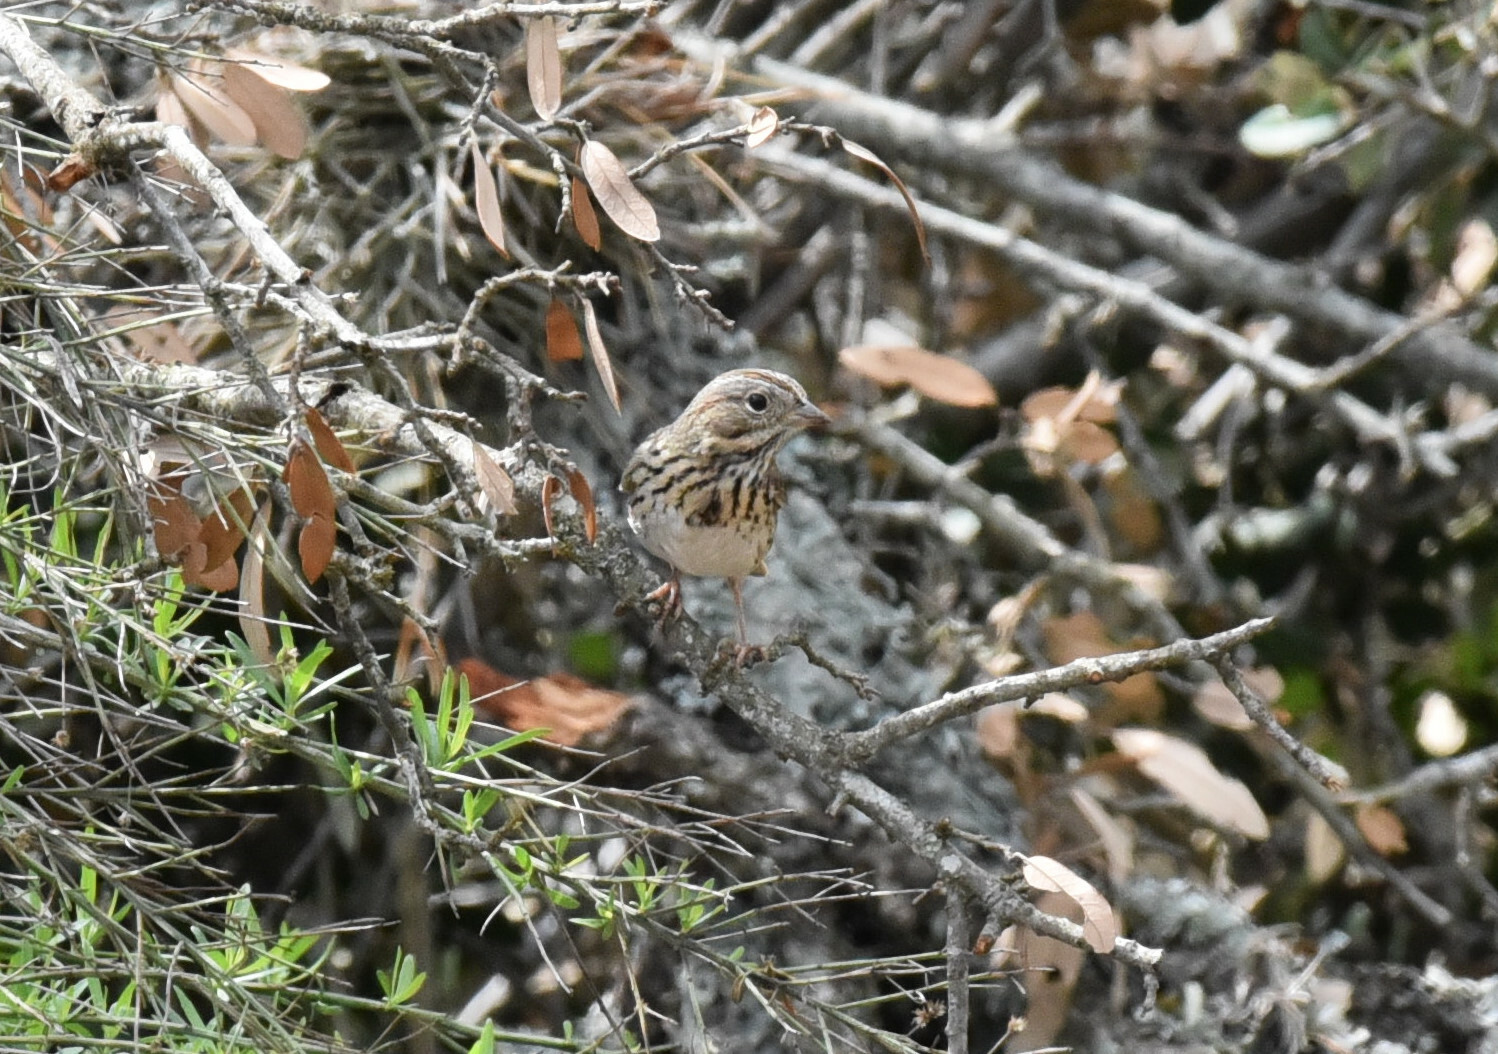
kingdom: Animalia
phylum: Chordata
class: Aves
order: Passeriformes
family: Passerellidae
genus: Melospiza
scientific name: Melospiza melodia
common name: Song sparrow
